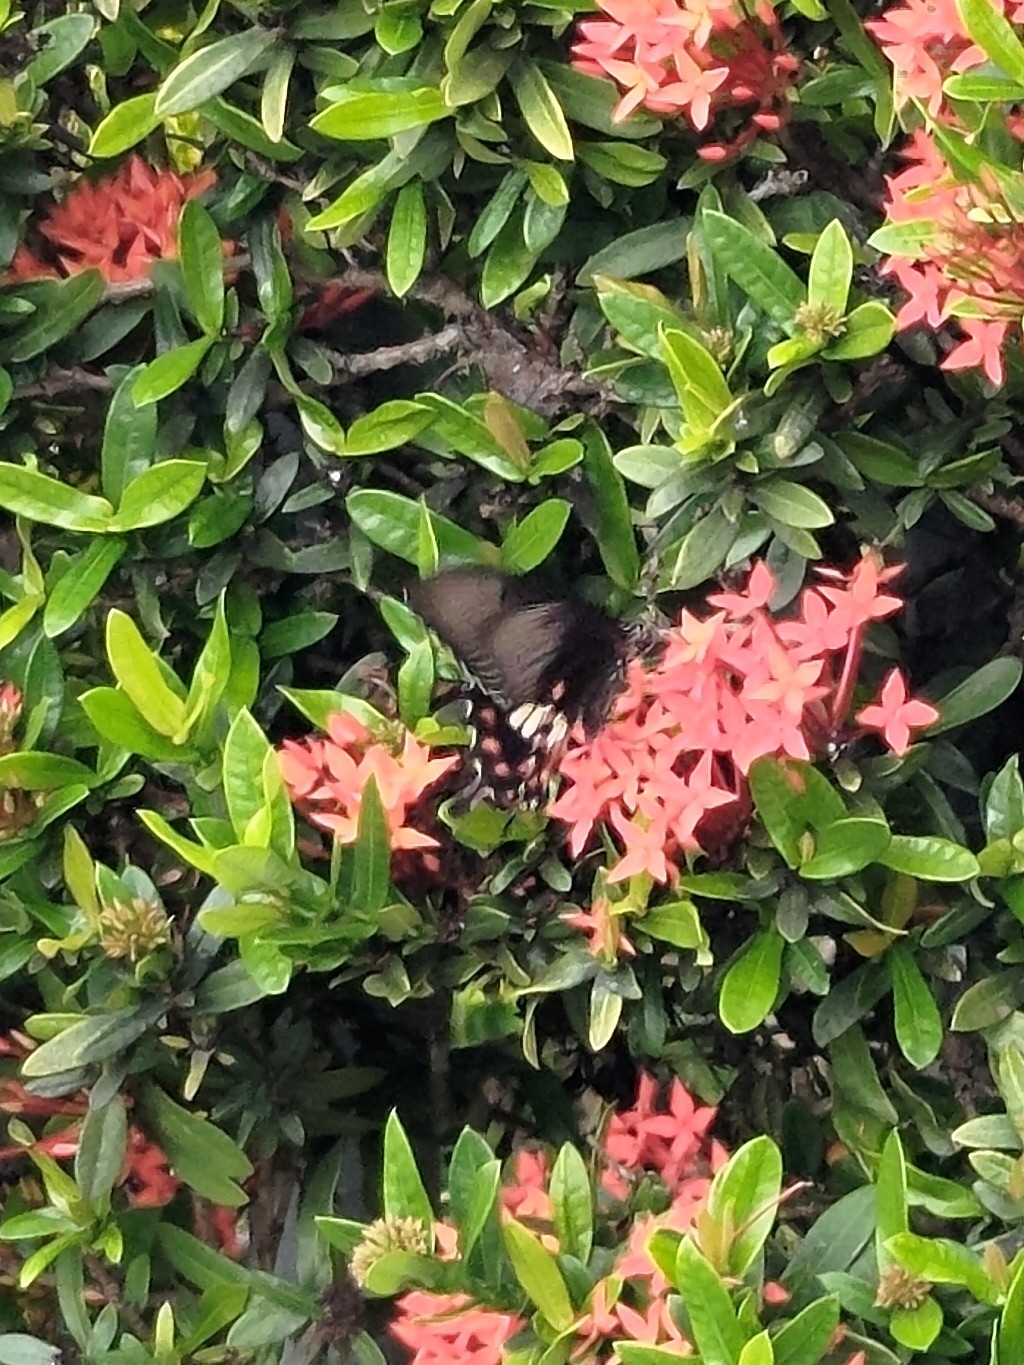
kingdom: Animalia
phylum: Arthropoda
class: Insecta
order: Lepidoptera
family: Papilionidae
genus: Papilio
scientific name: Papilio polytes
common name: Common mormon
